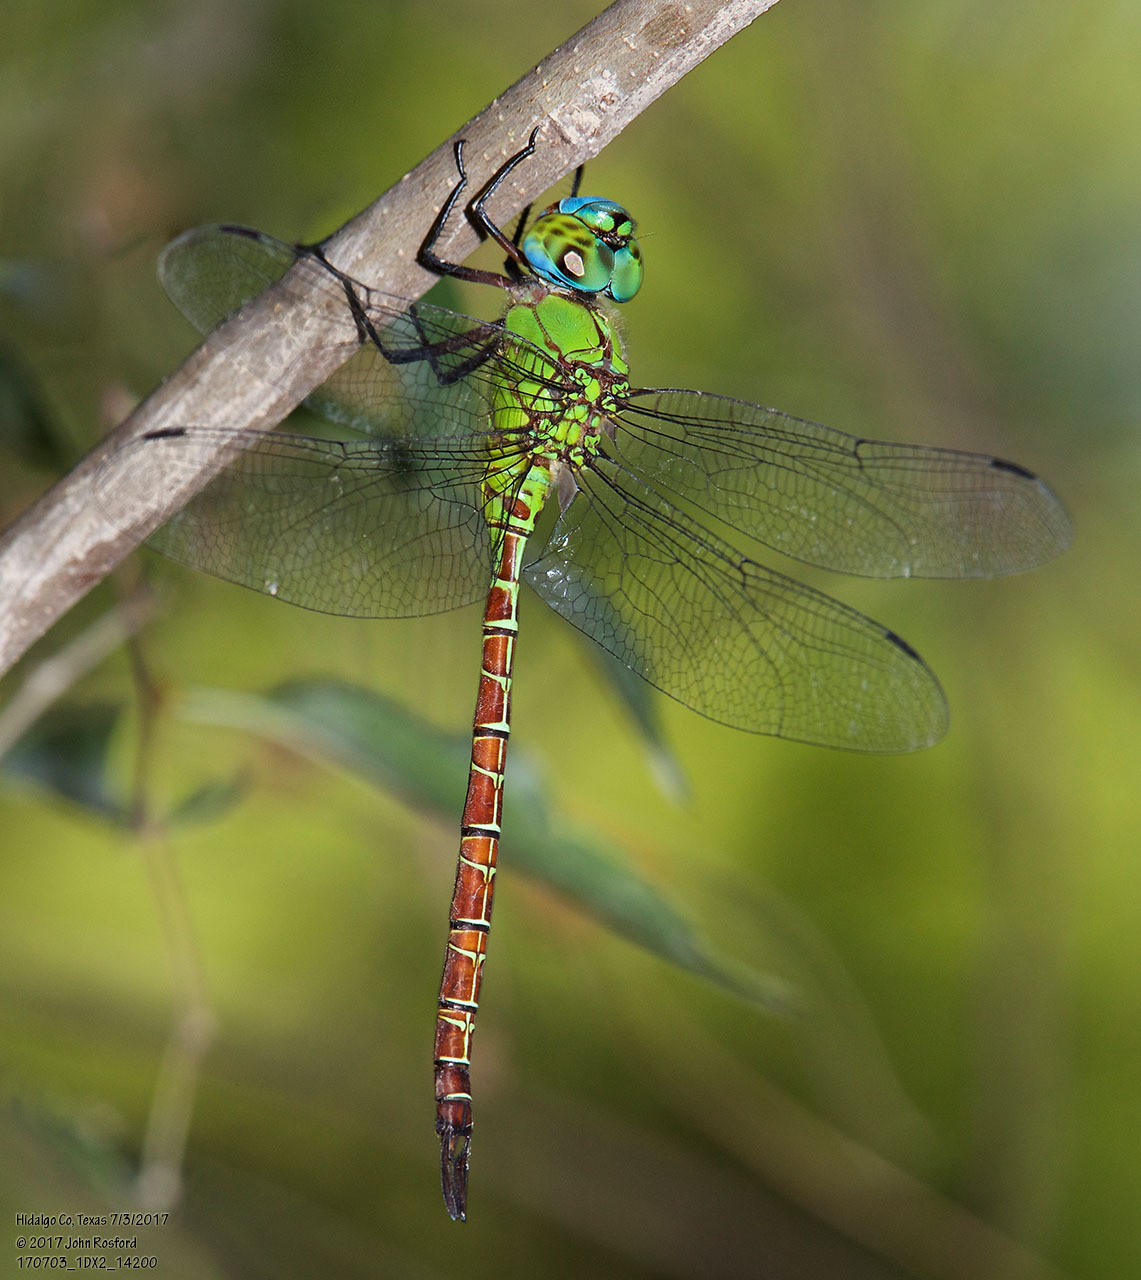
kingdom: Animalia
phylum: Arthropoda
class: Insecta
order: Odonata
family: Aeshnidae
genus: Coryphaeschna
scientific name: Coryphaeschna adnexa
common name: Blue-faced darner
